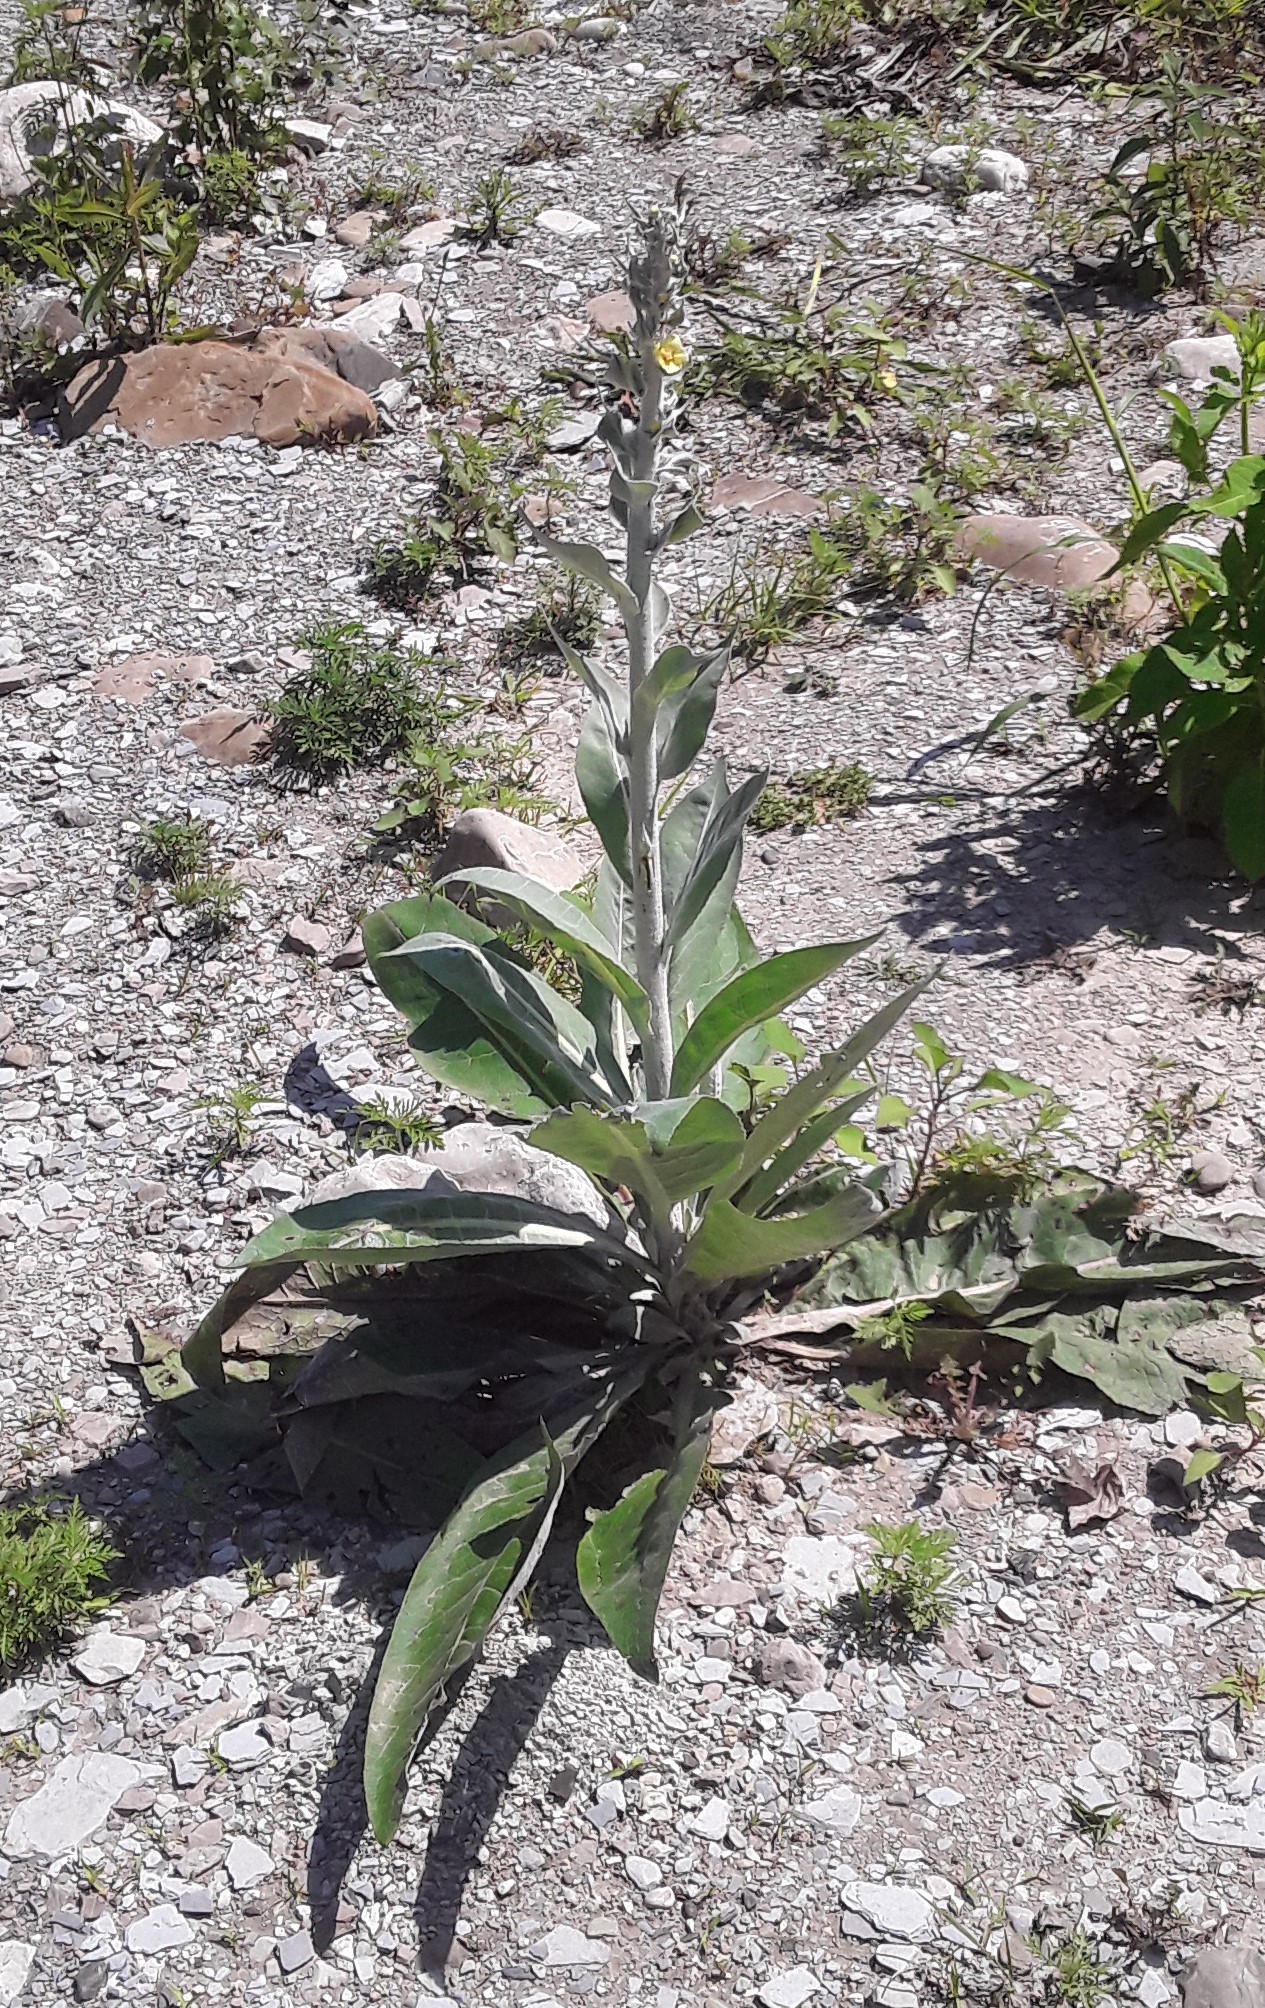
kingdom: Plantae
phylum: Tracheophyta
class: Magnoliopsida
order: Lamiales
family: Scrophulariaceae
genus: Verbascum
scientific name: Verbascum
